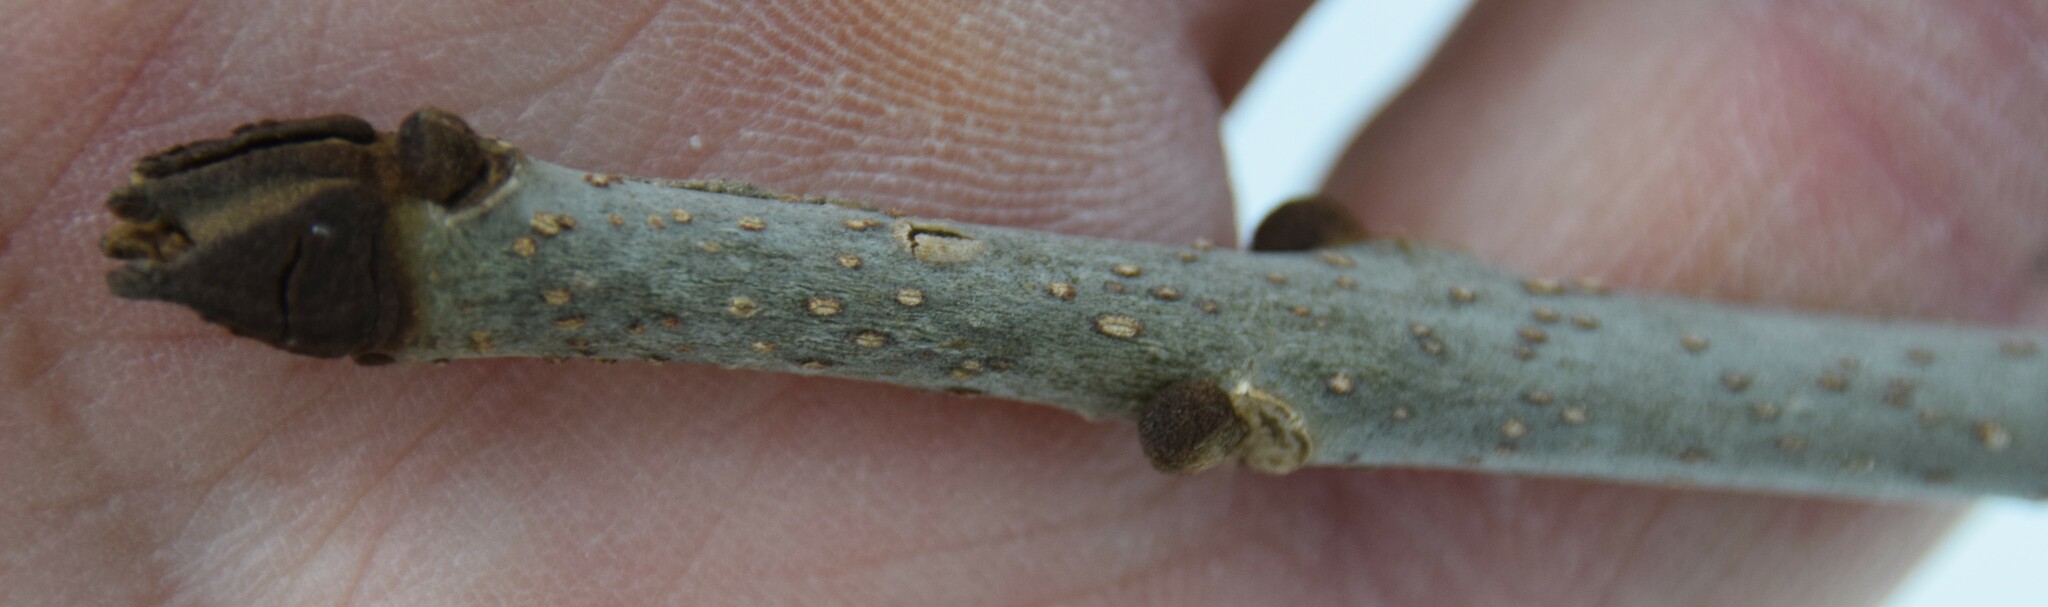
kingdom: Plantae
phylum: Tracheophyta
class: Magnoliopsida
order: Lamiales
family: Oleaceae
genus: Fraxinus
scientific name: Fraxinus nigra
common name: Black ash
